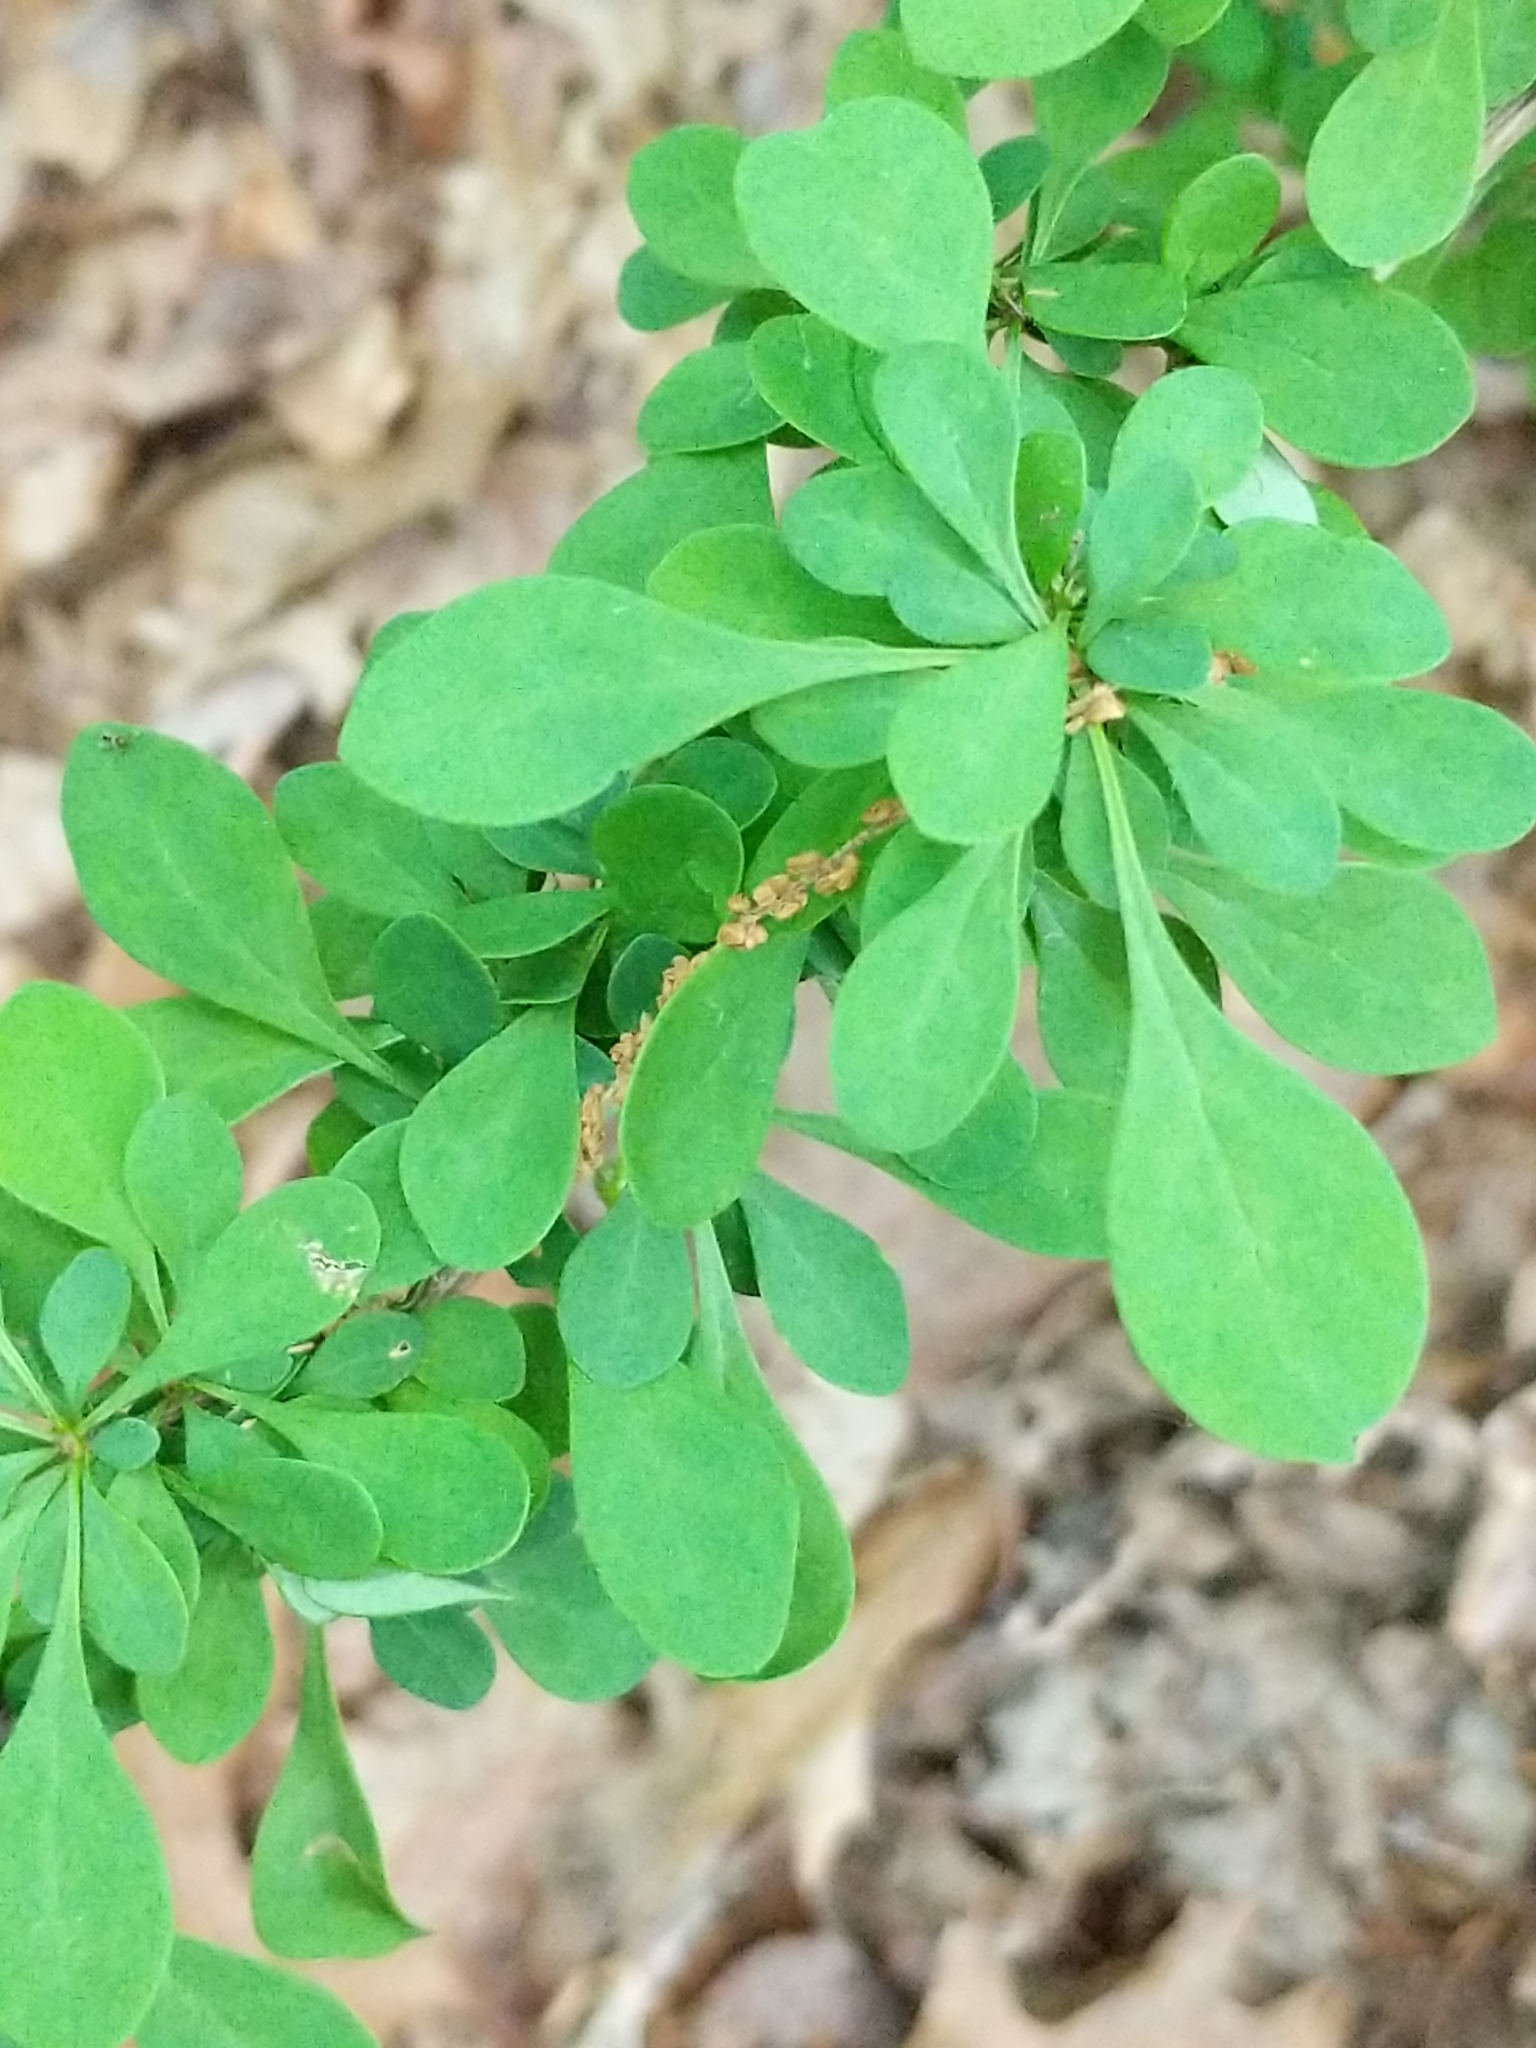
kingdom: Plantae
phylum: Tracheophyta
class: Magnoliopsida
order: Ranunculales
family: Berberidaceae
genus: Berberis
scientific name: Berberis thunbergii
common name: Japanese barberry
